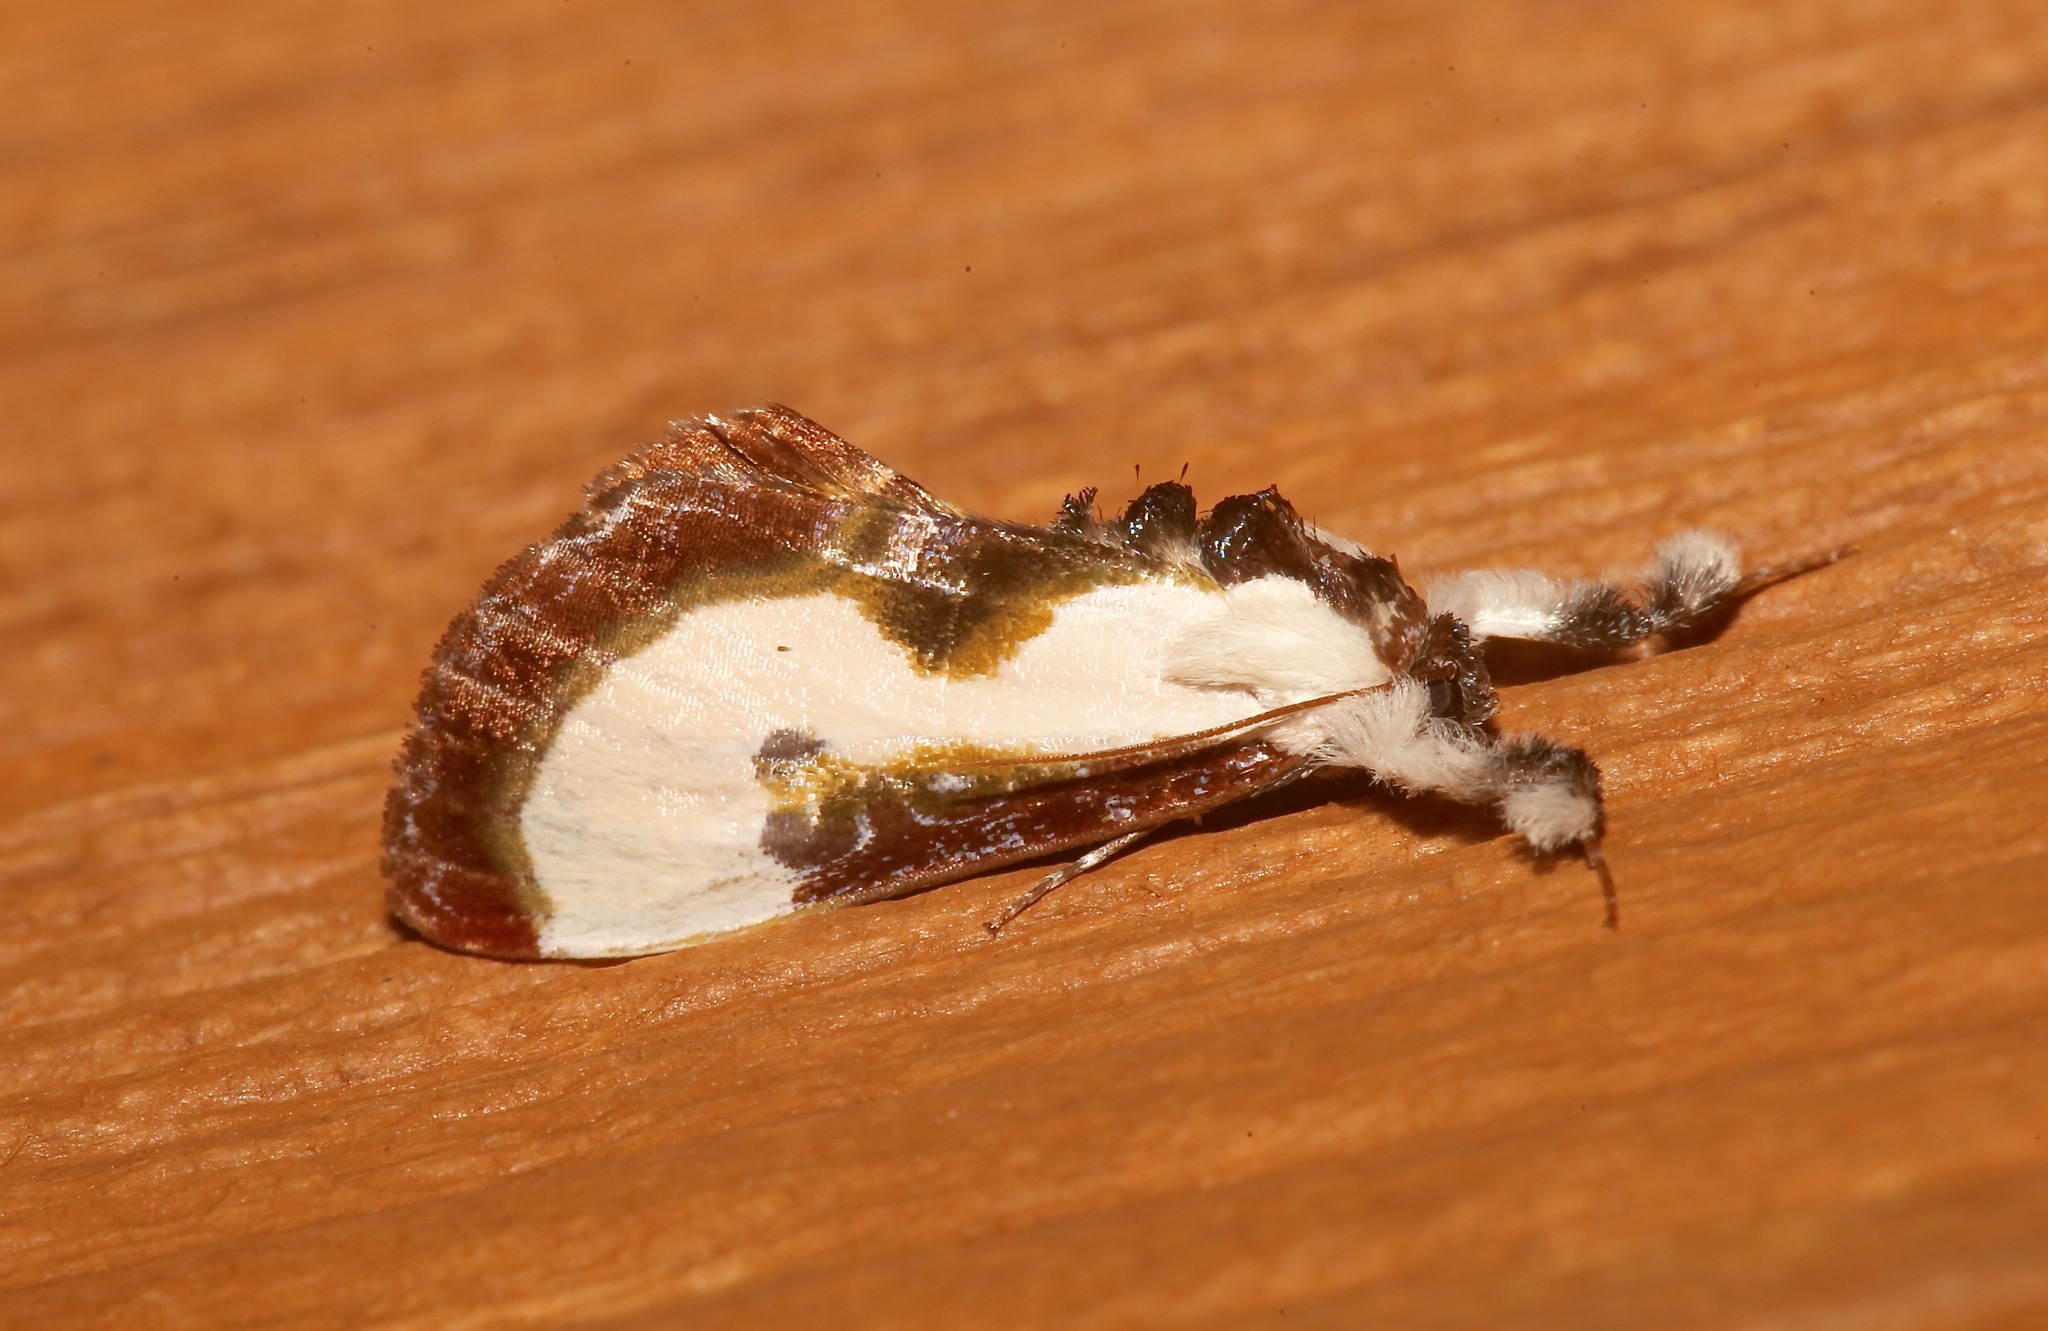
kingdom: Animalia
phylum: Arthropoda
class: Insecta
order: Lepidoptera
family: Noctuidae
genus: Eudryas
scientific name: Eudryas grata
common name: Beautiful wood-nymph
